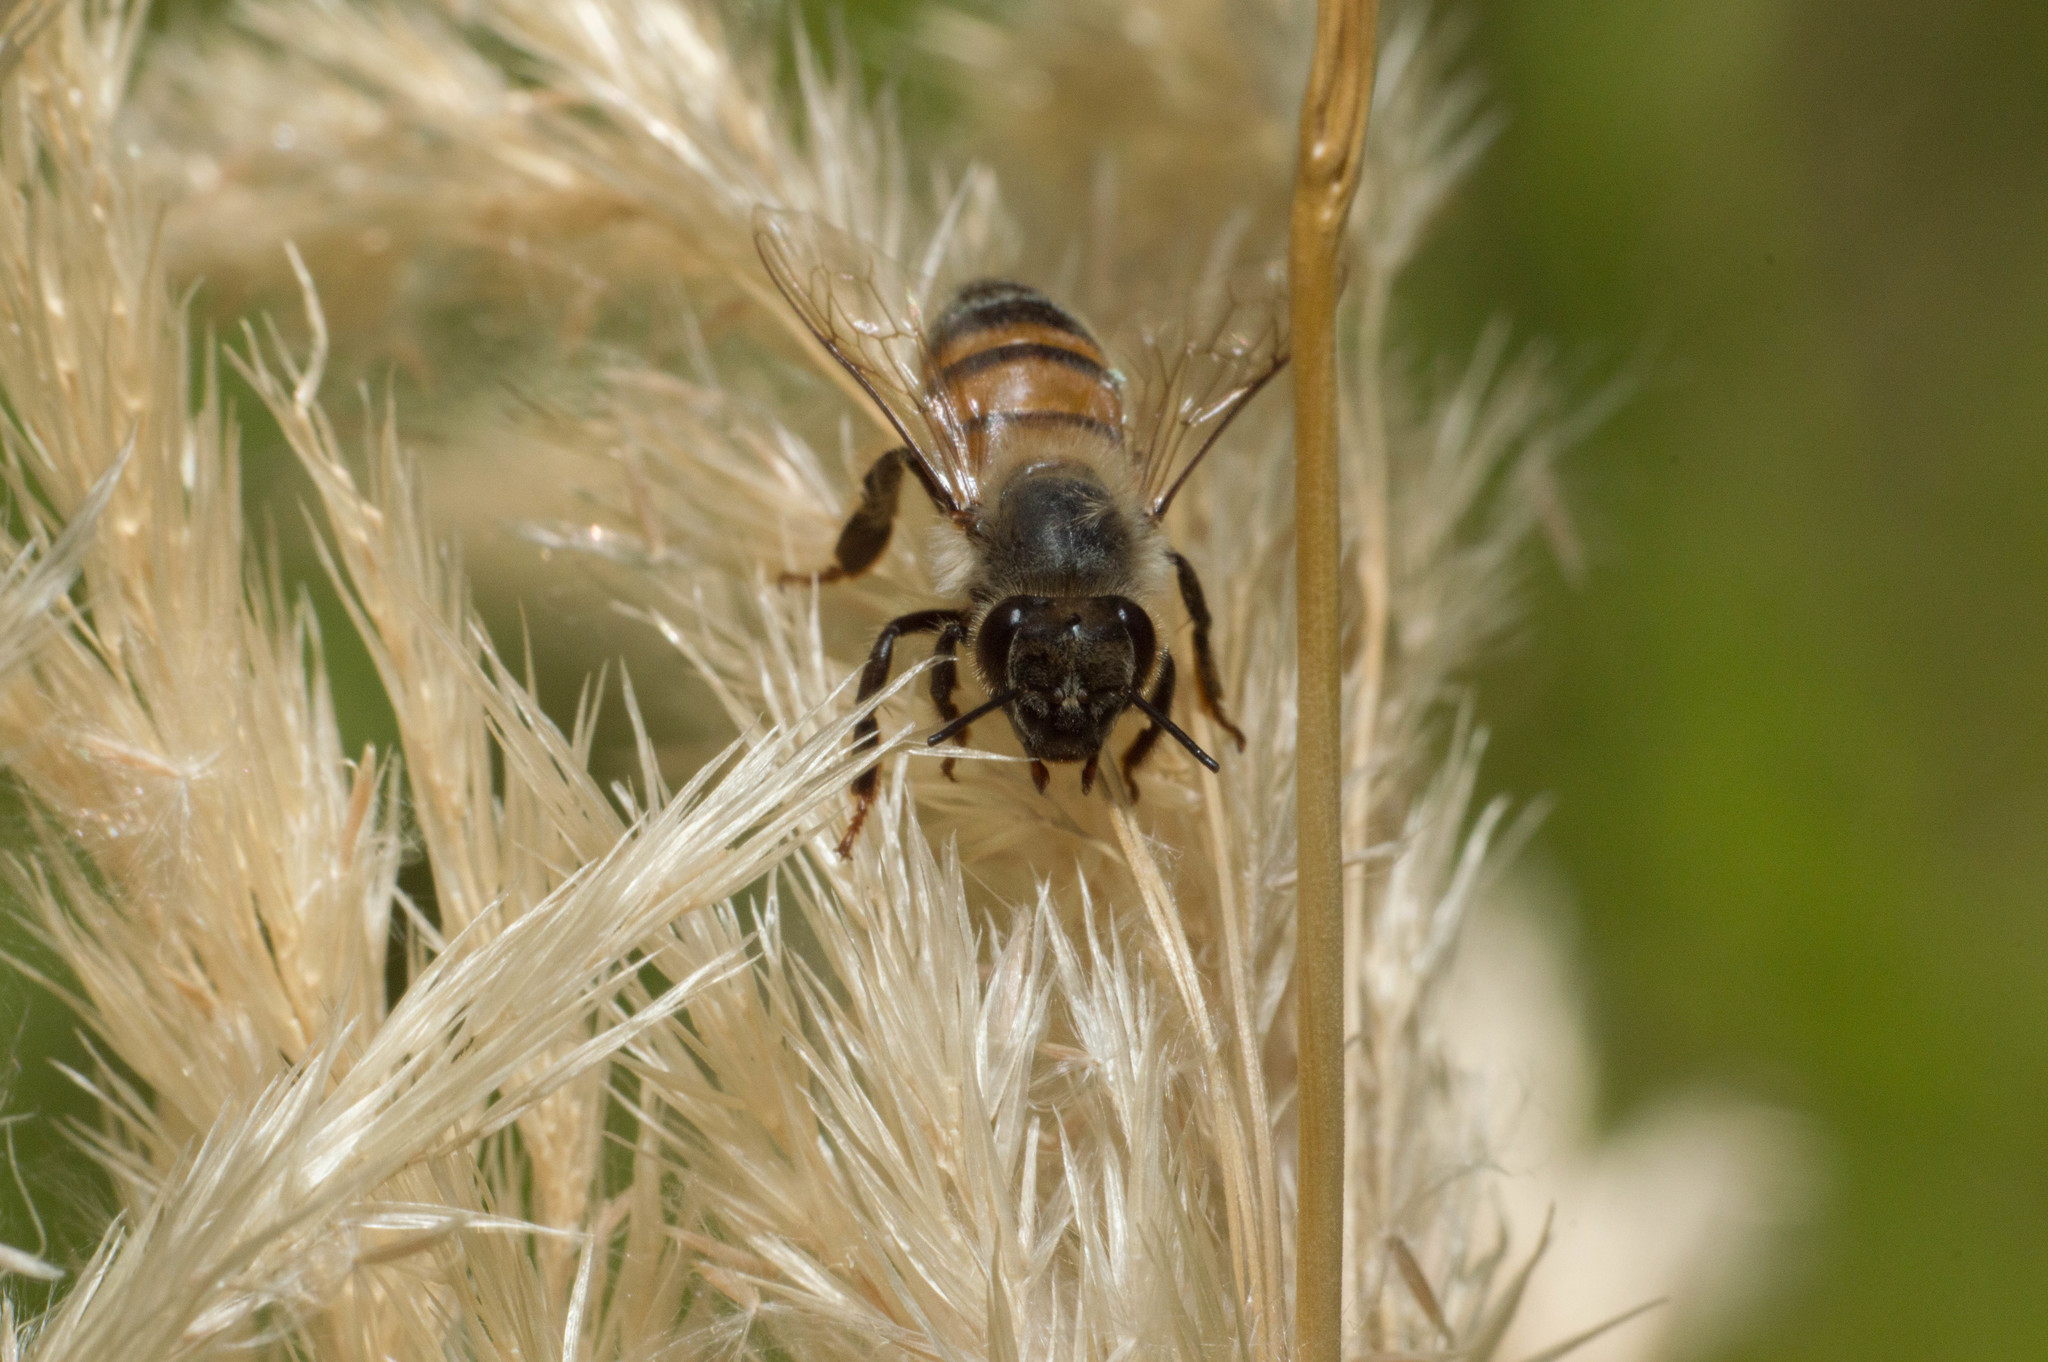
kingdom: Animalia
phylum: Arthropoda
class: Insecta
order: Hymenoptera
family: Apidae
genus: Apis
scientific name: Apis mellifera
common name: Honey bee
